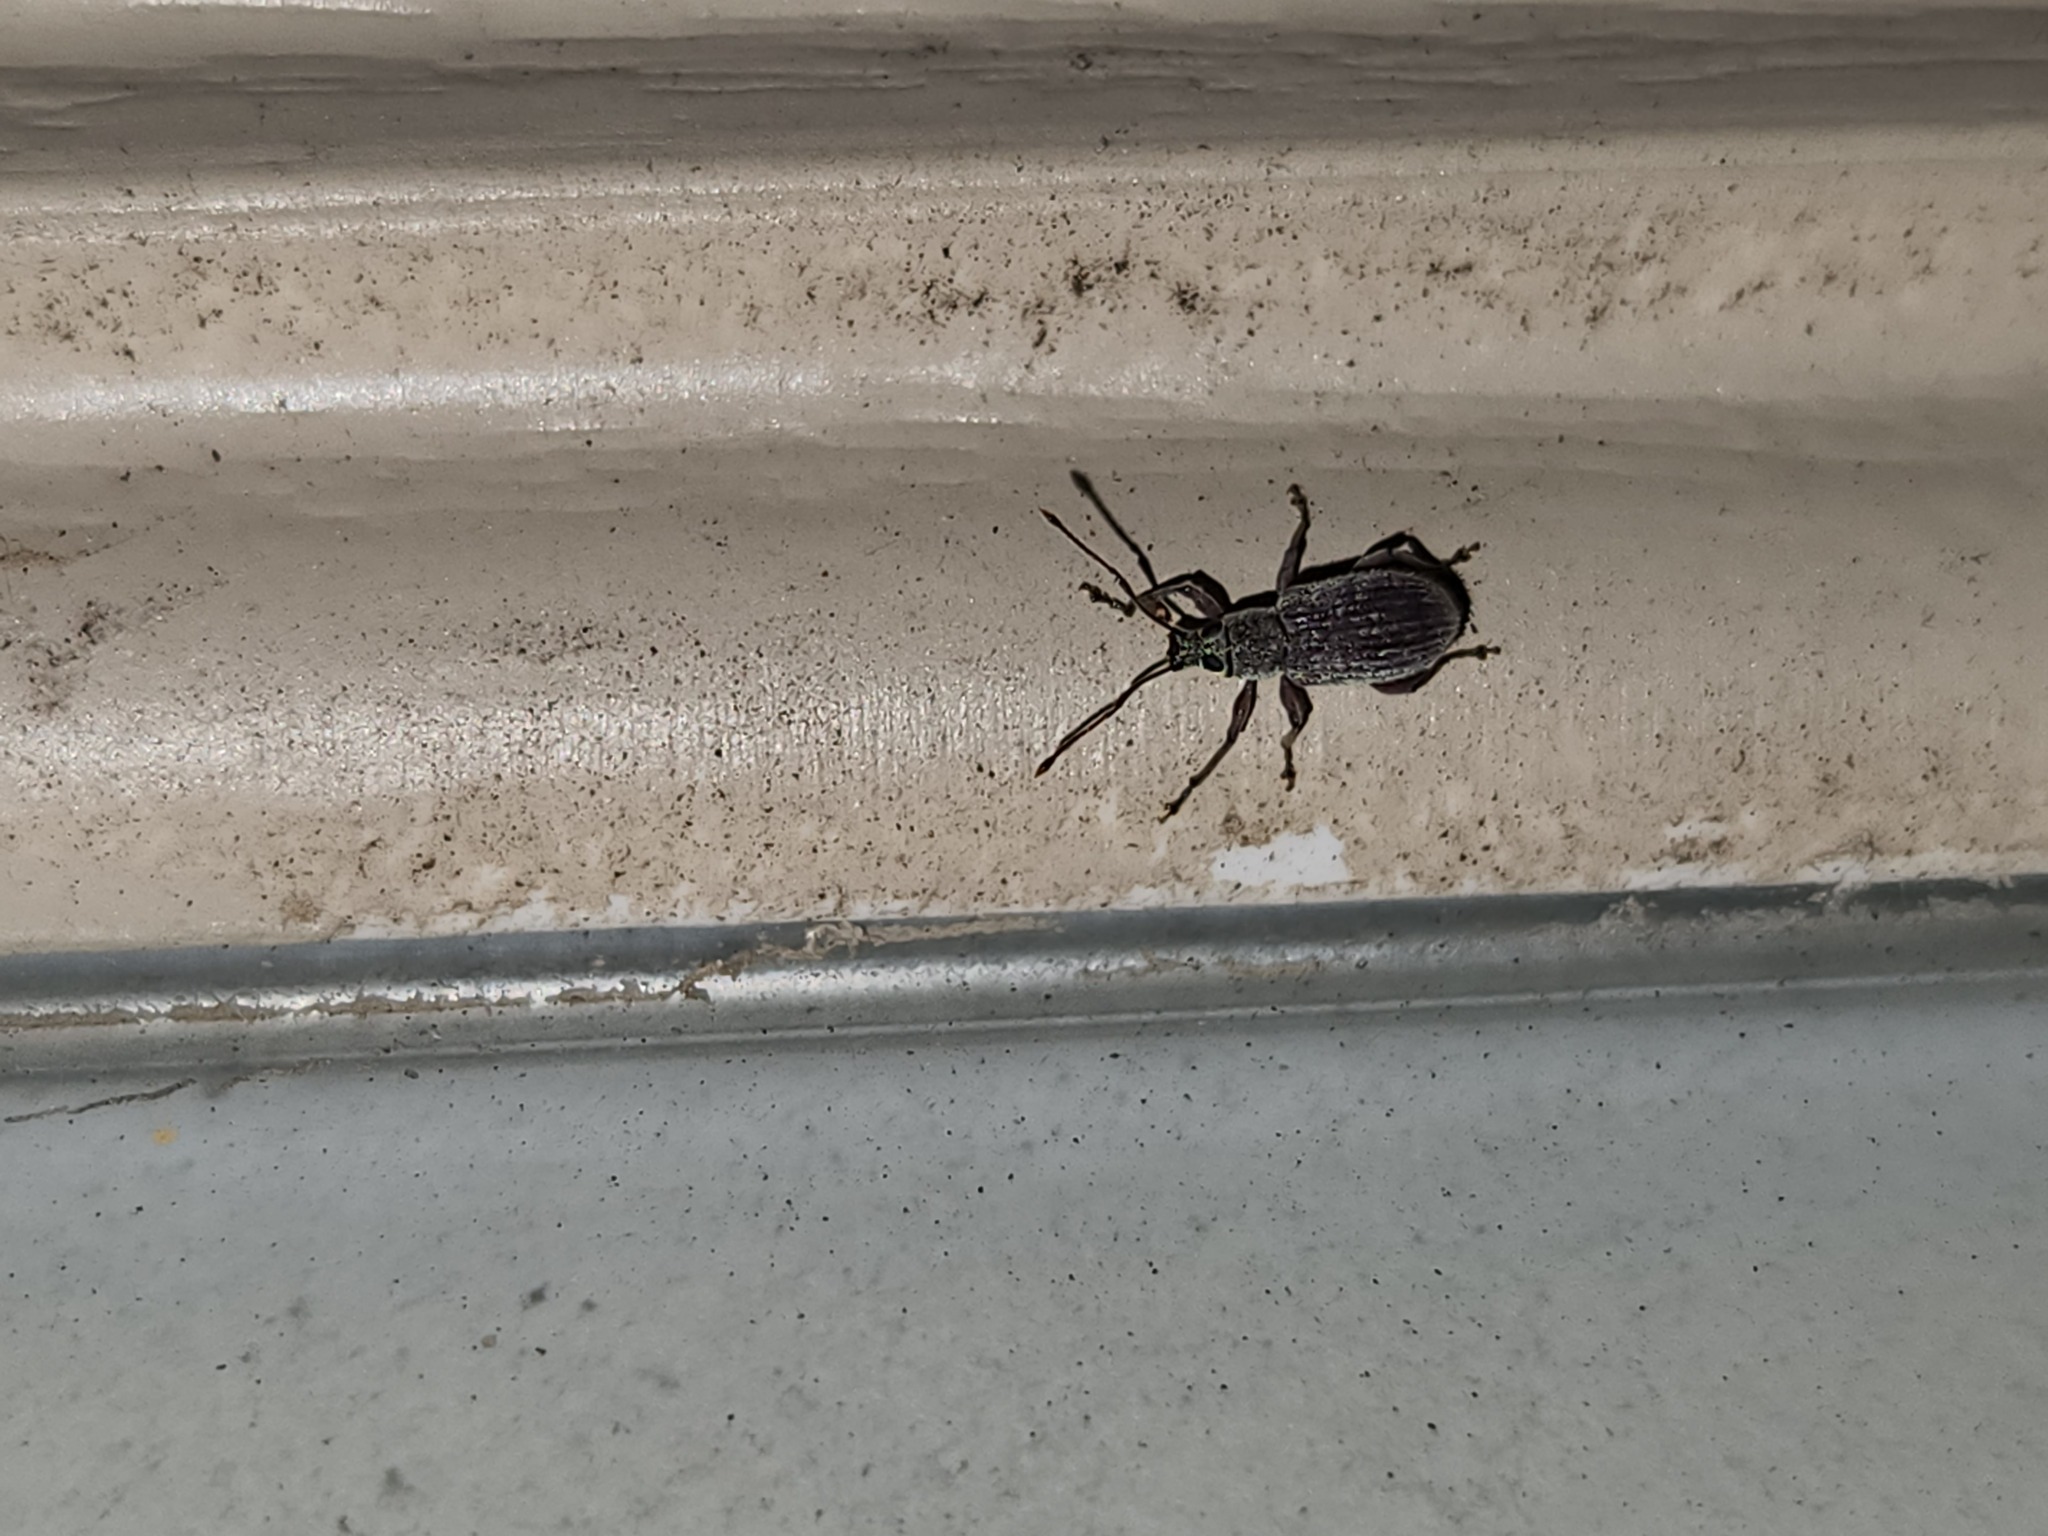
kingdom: Animalia
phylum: Arthropoda
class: Insecta
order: Coleoptera
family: Curculionidae
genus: Cyrtepistomus
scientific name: Cyrtepistomus castaneus
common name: Weevil
